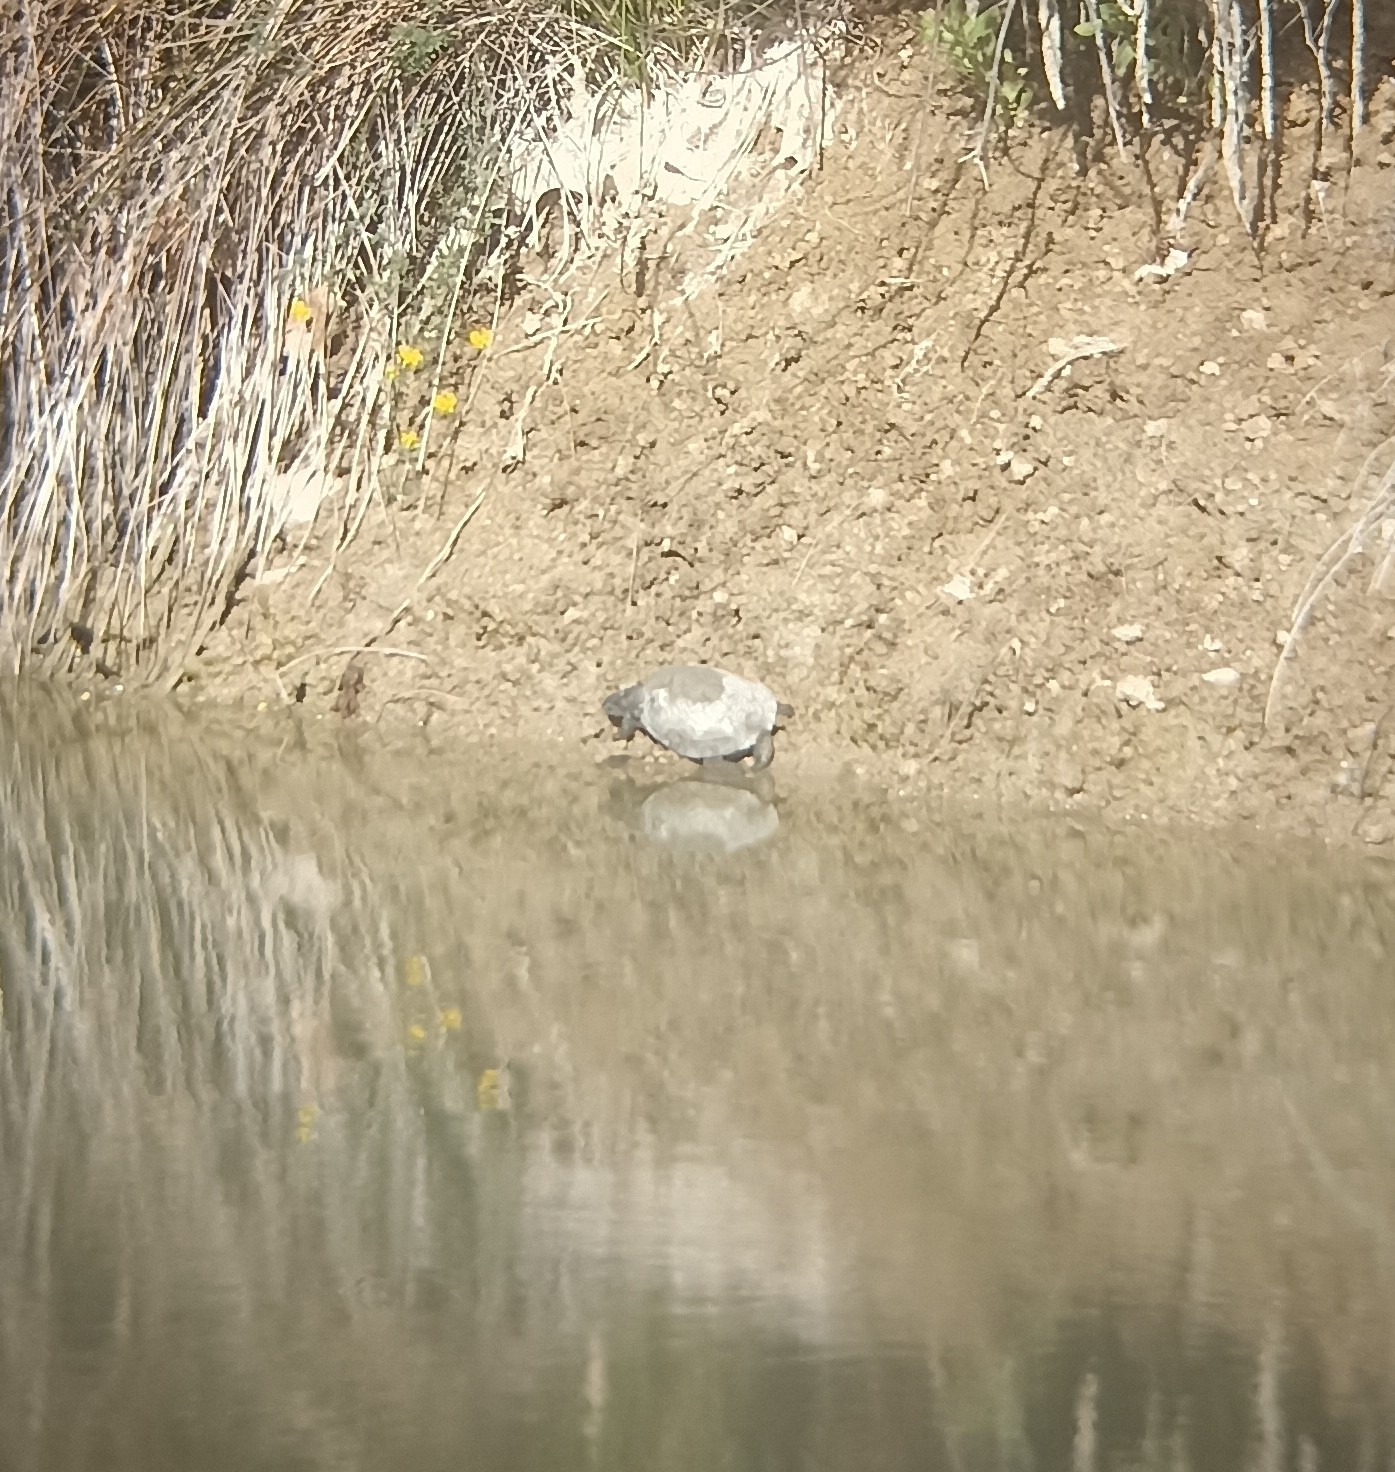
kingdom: Animalia
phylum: Chordata
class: Testudines
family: Emydidae
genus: Emys
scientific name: Emys orbicularis
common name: European pond turtle
